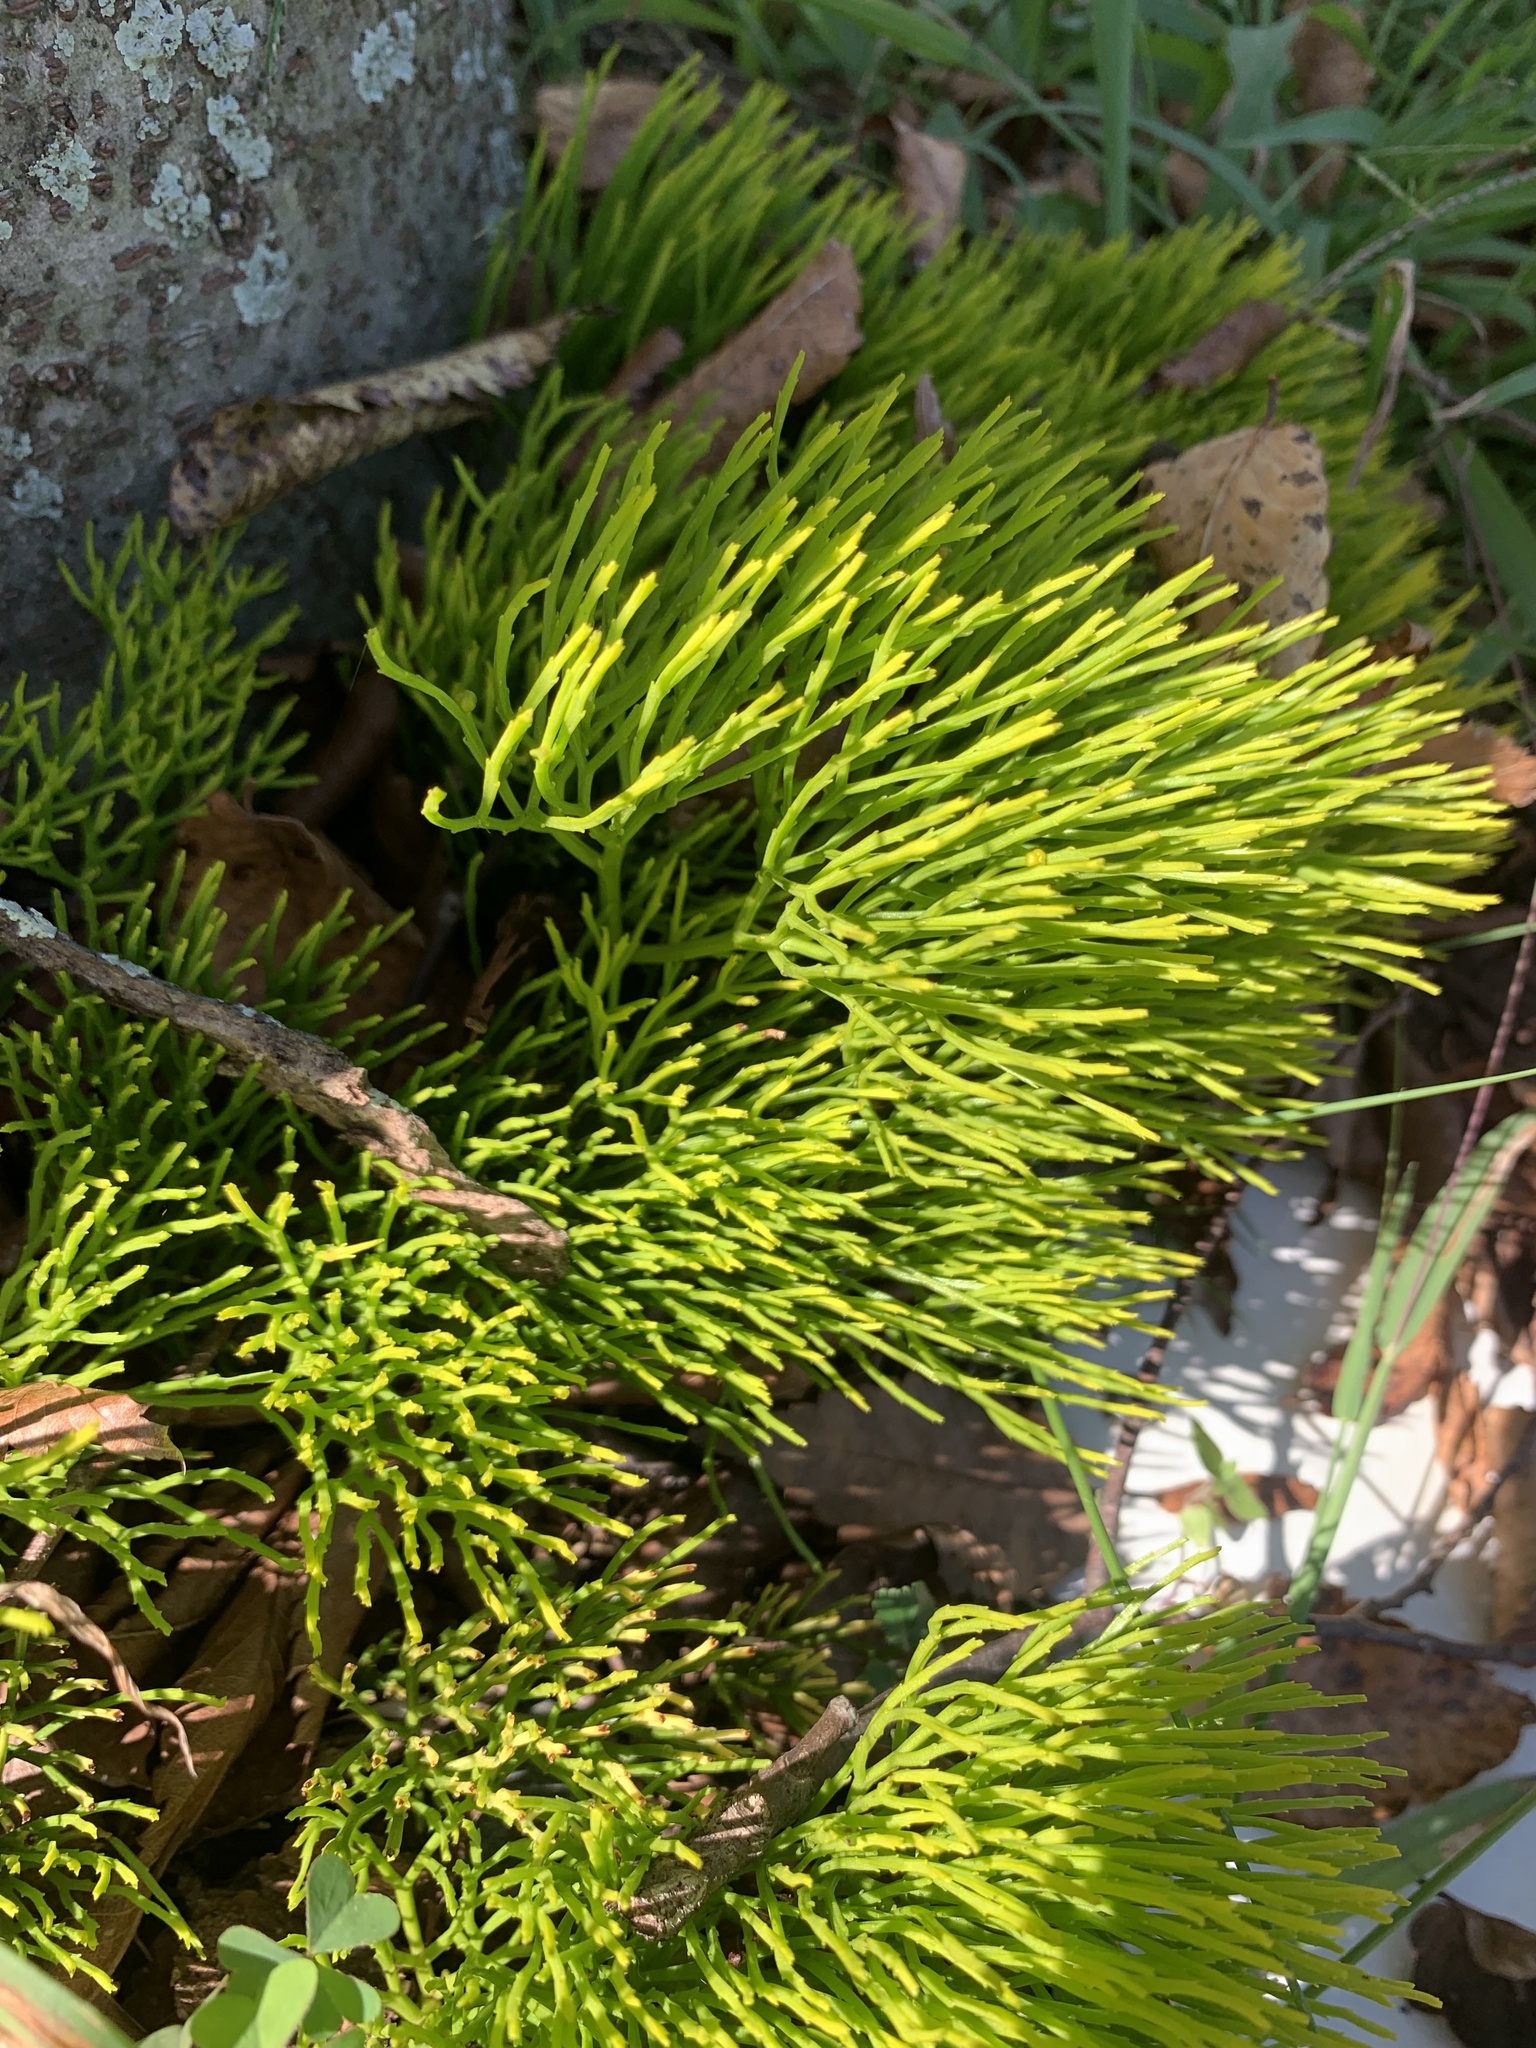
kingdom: Plantae
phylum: Tracheophyta
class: Polypodiopsida
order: Psilotales
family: Psilotaceae
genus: Psilotum
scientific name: Psilotum nudum
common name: Skeleton fork fern
